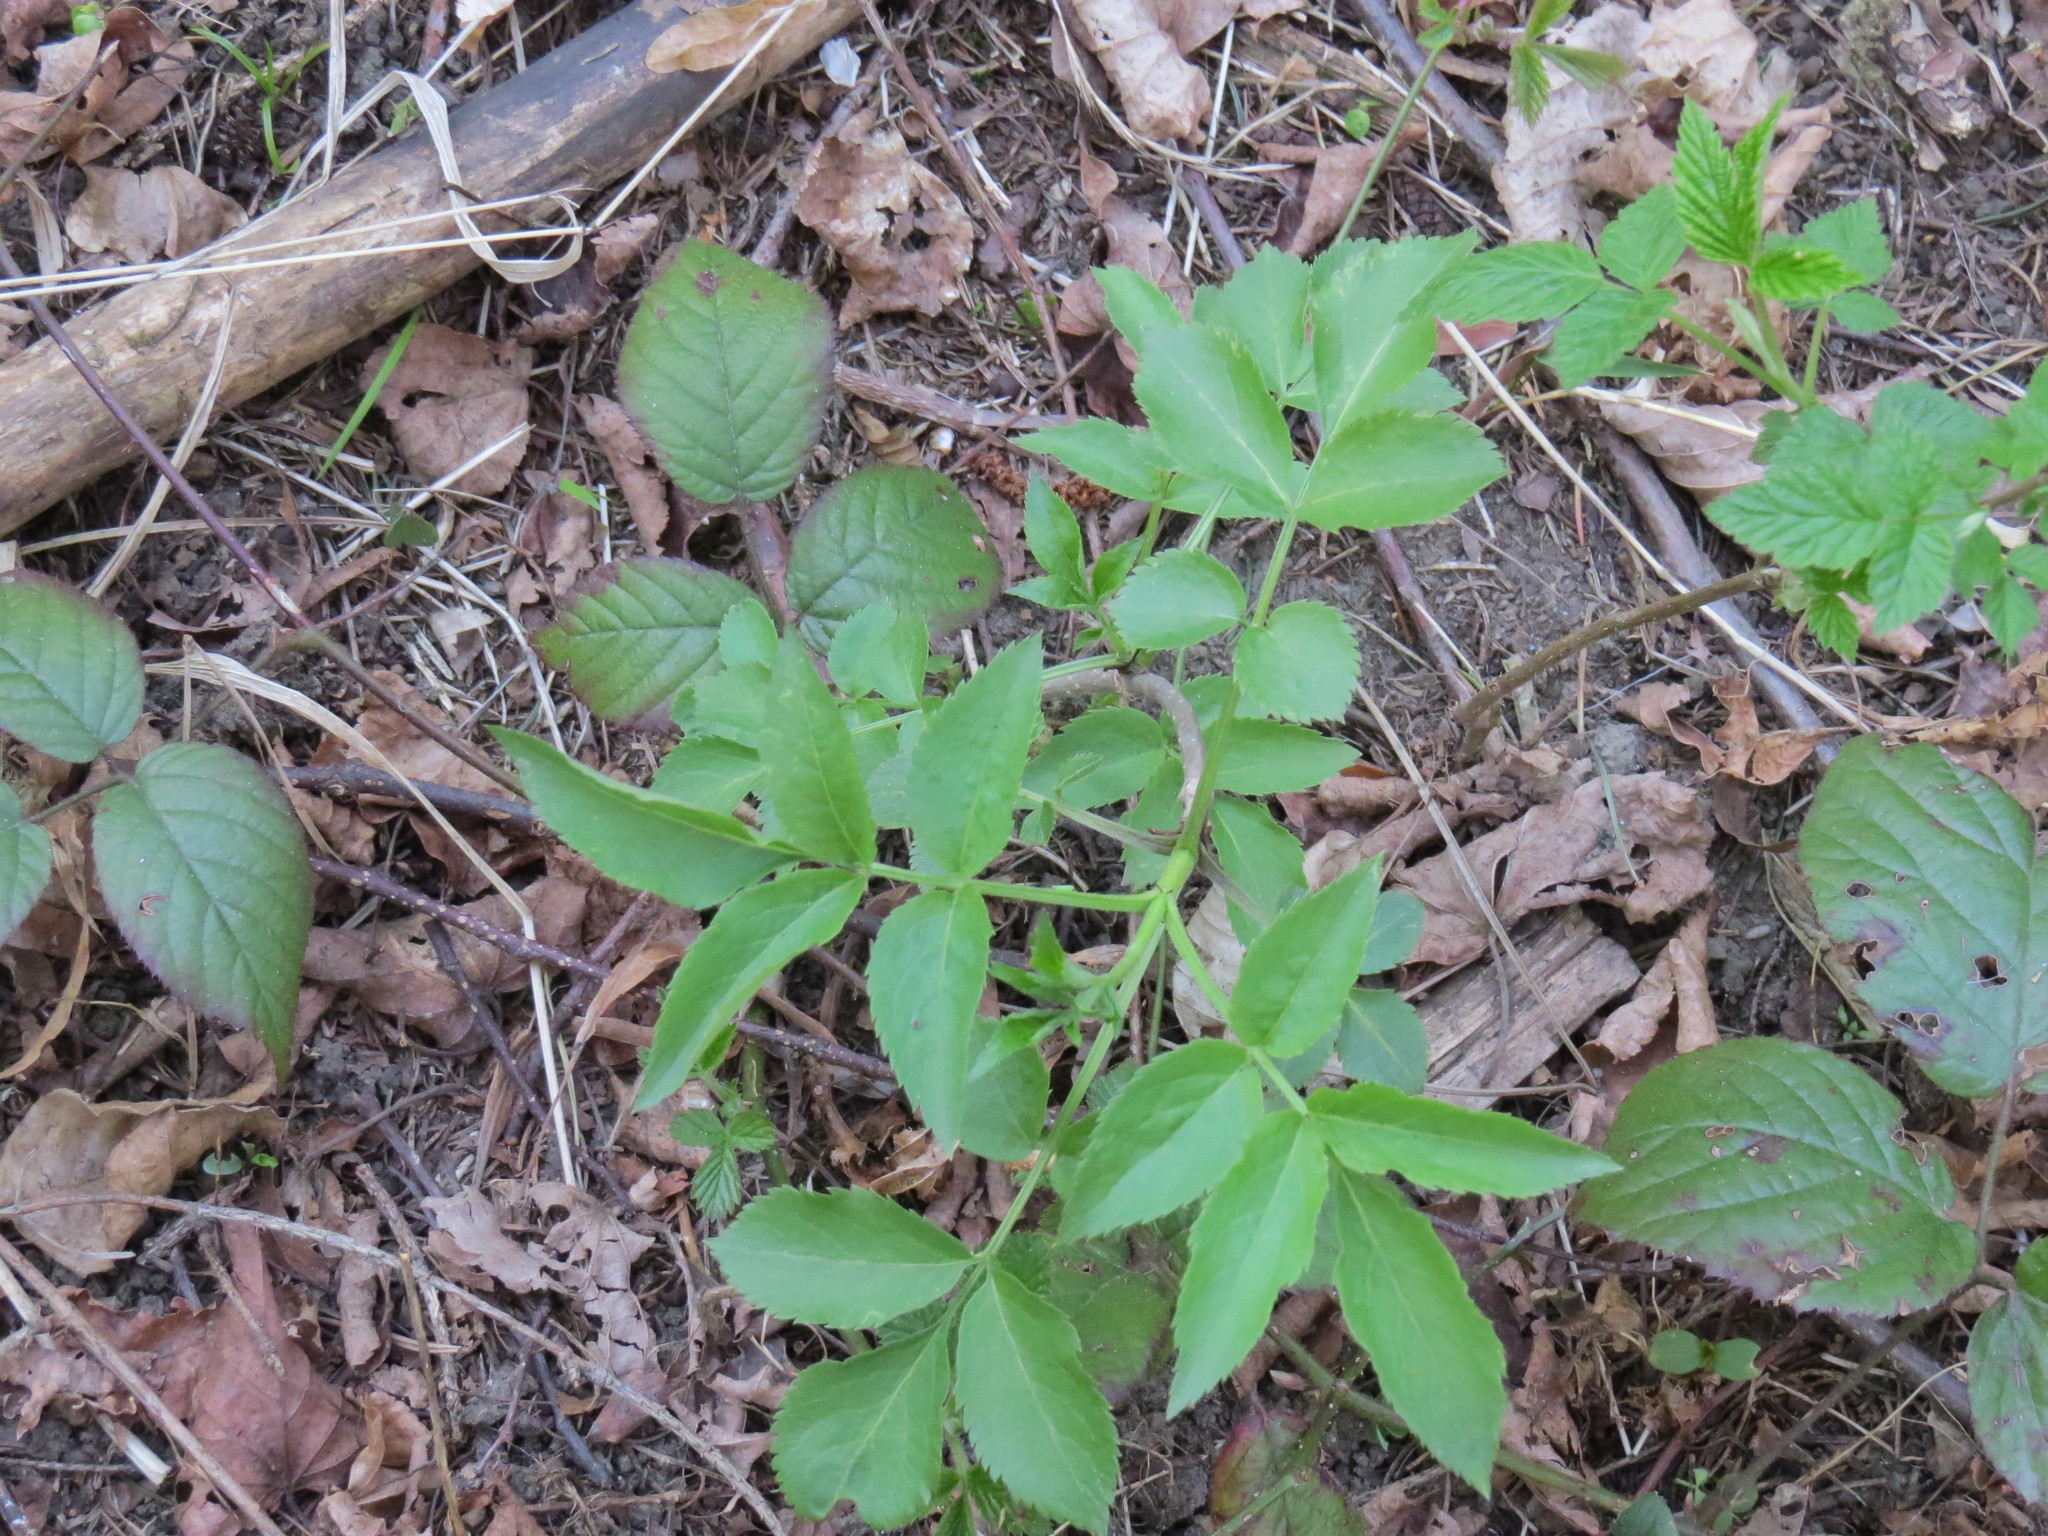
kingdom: Plantae
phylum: Tracheophyta
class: Magnoliopsida
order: Dipsacales
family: Viburnaceae
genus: Sambucus
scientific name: Sambucus nigra
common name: Elder
